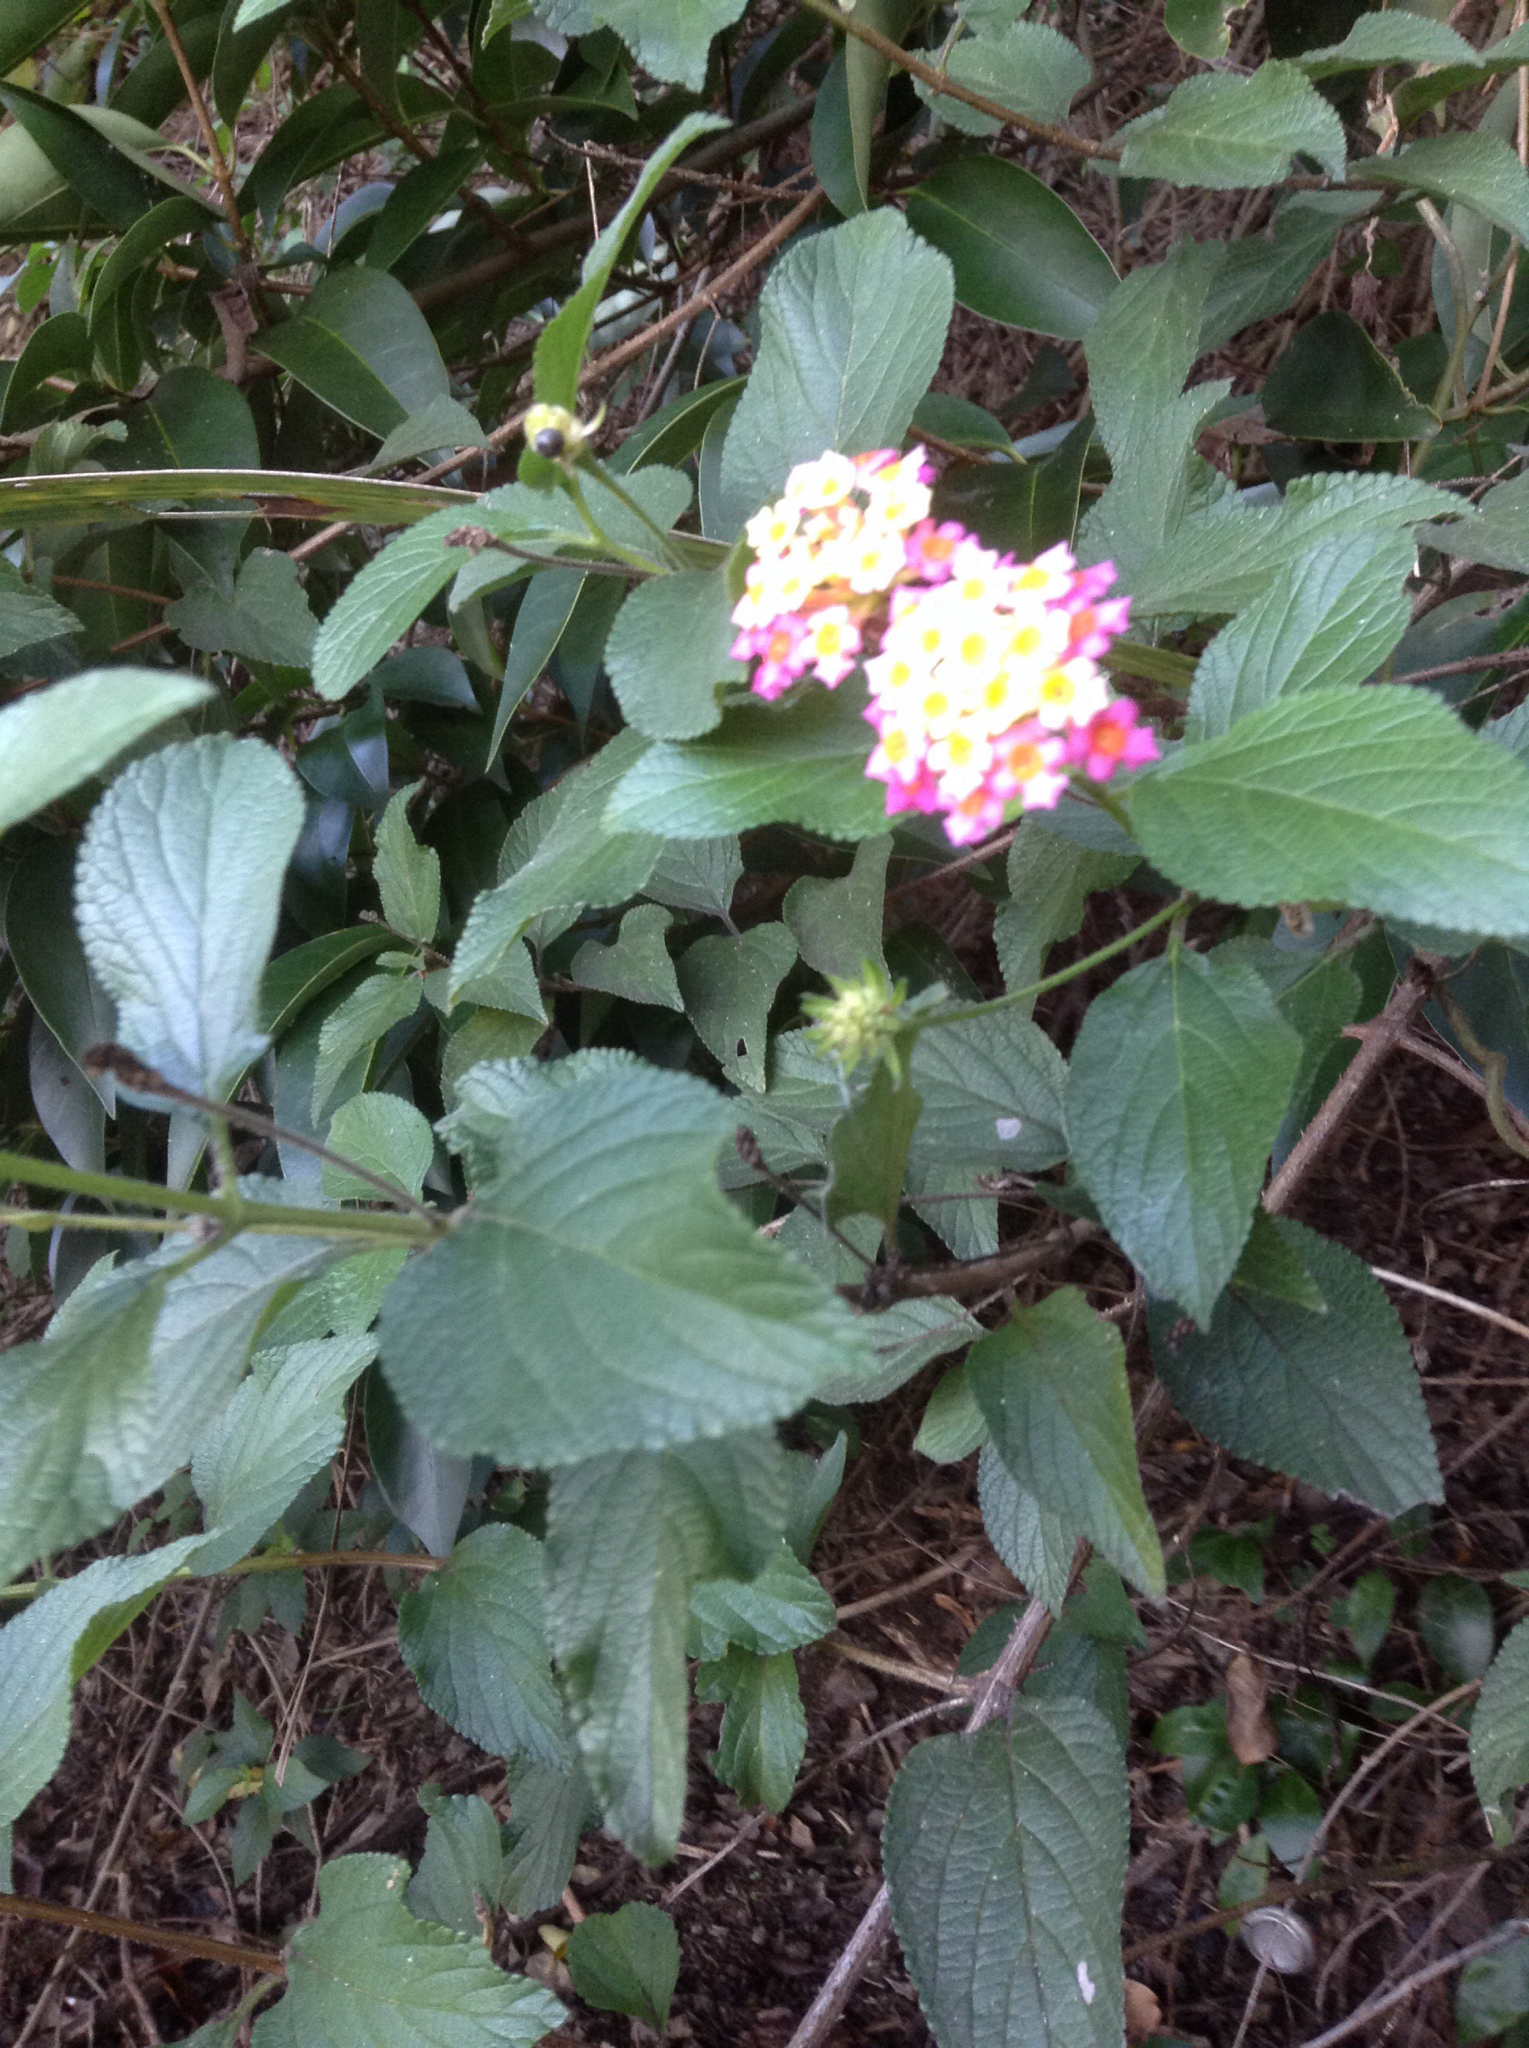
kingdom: Plantae
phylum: Tracheophyta
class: Magnoliopsida
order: Lamiales
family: Verbenaceae
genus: Lantana
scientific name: Lantana camara
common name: Lantana
